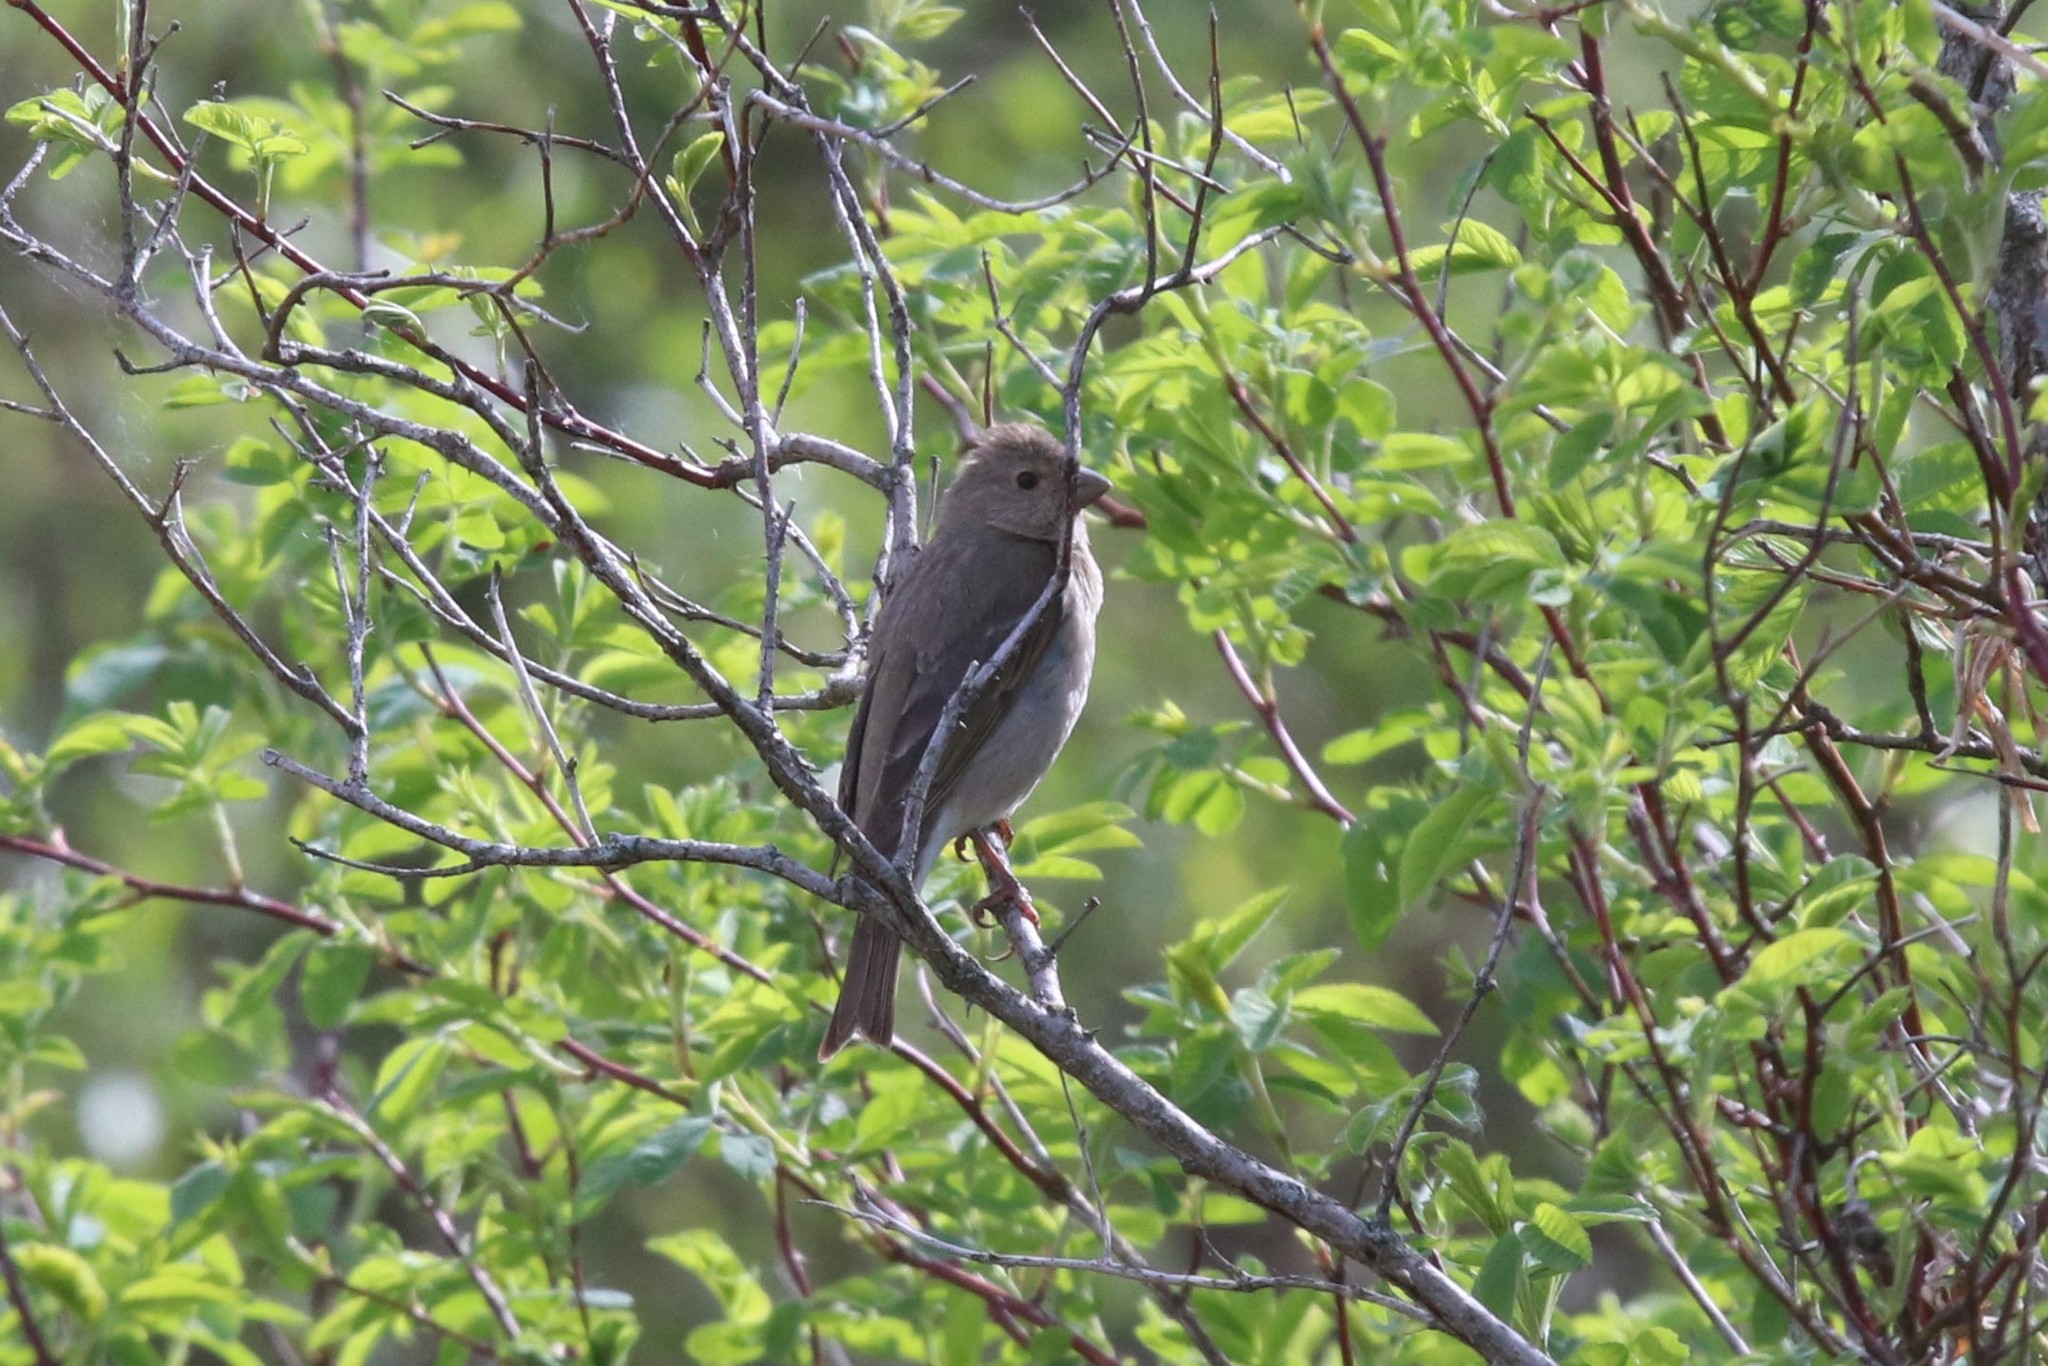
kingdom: Animalia
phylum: Chordata
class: Aves
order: Passeriformes
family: Fringillidae
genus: Carpodacus
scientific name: Carpodacus erythrinus
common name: Common rosefinch
